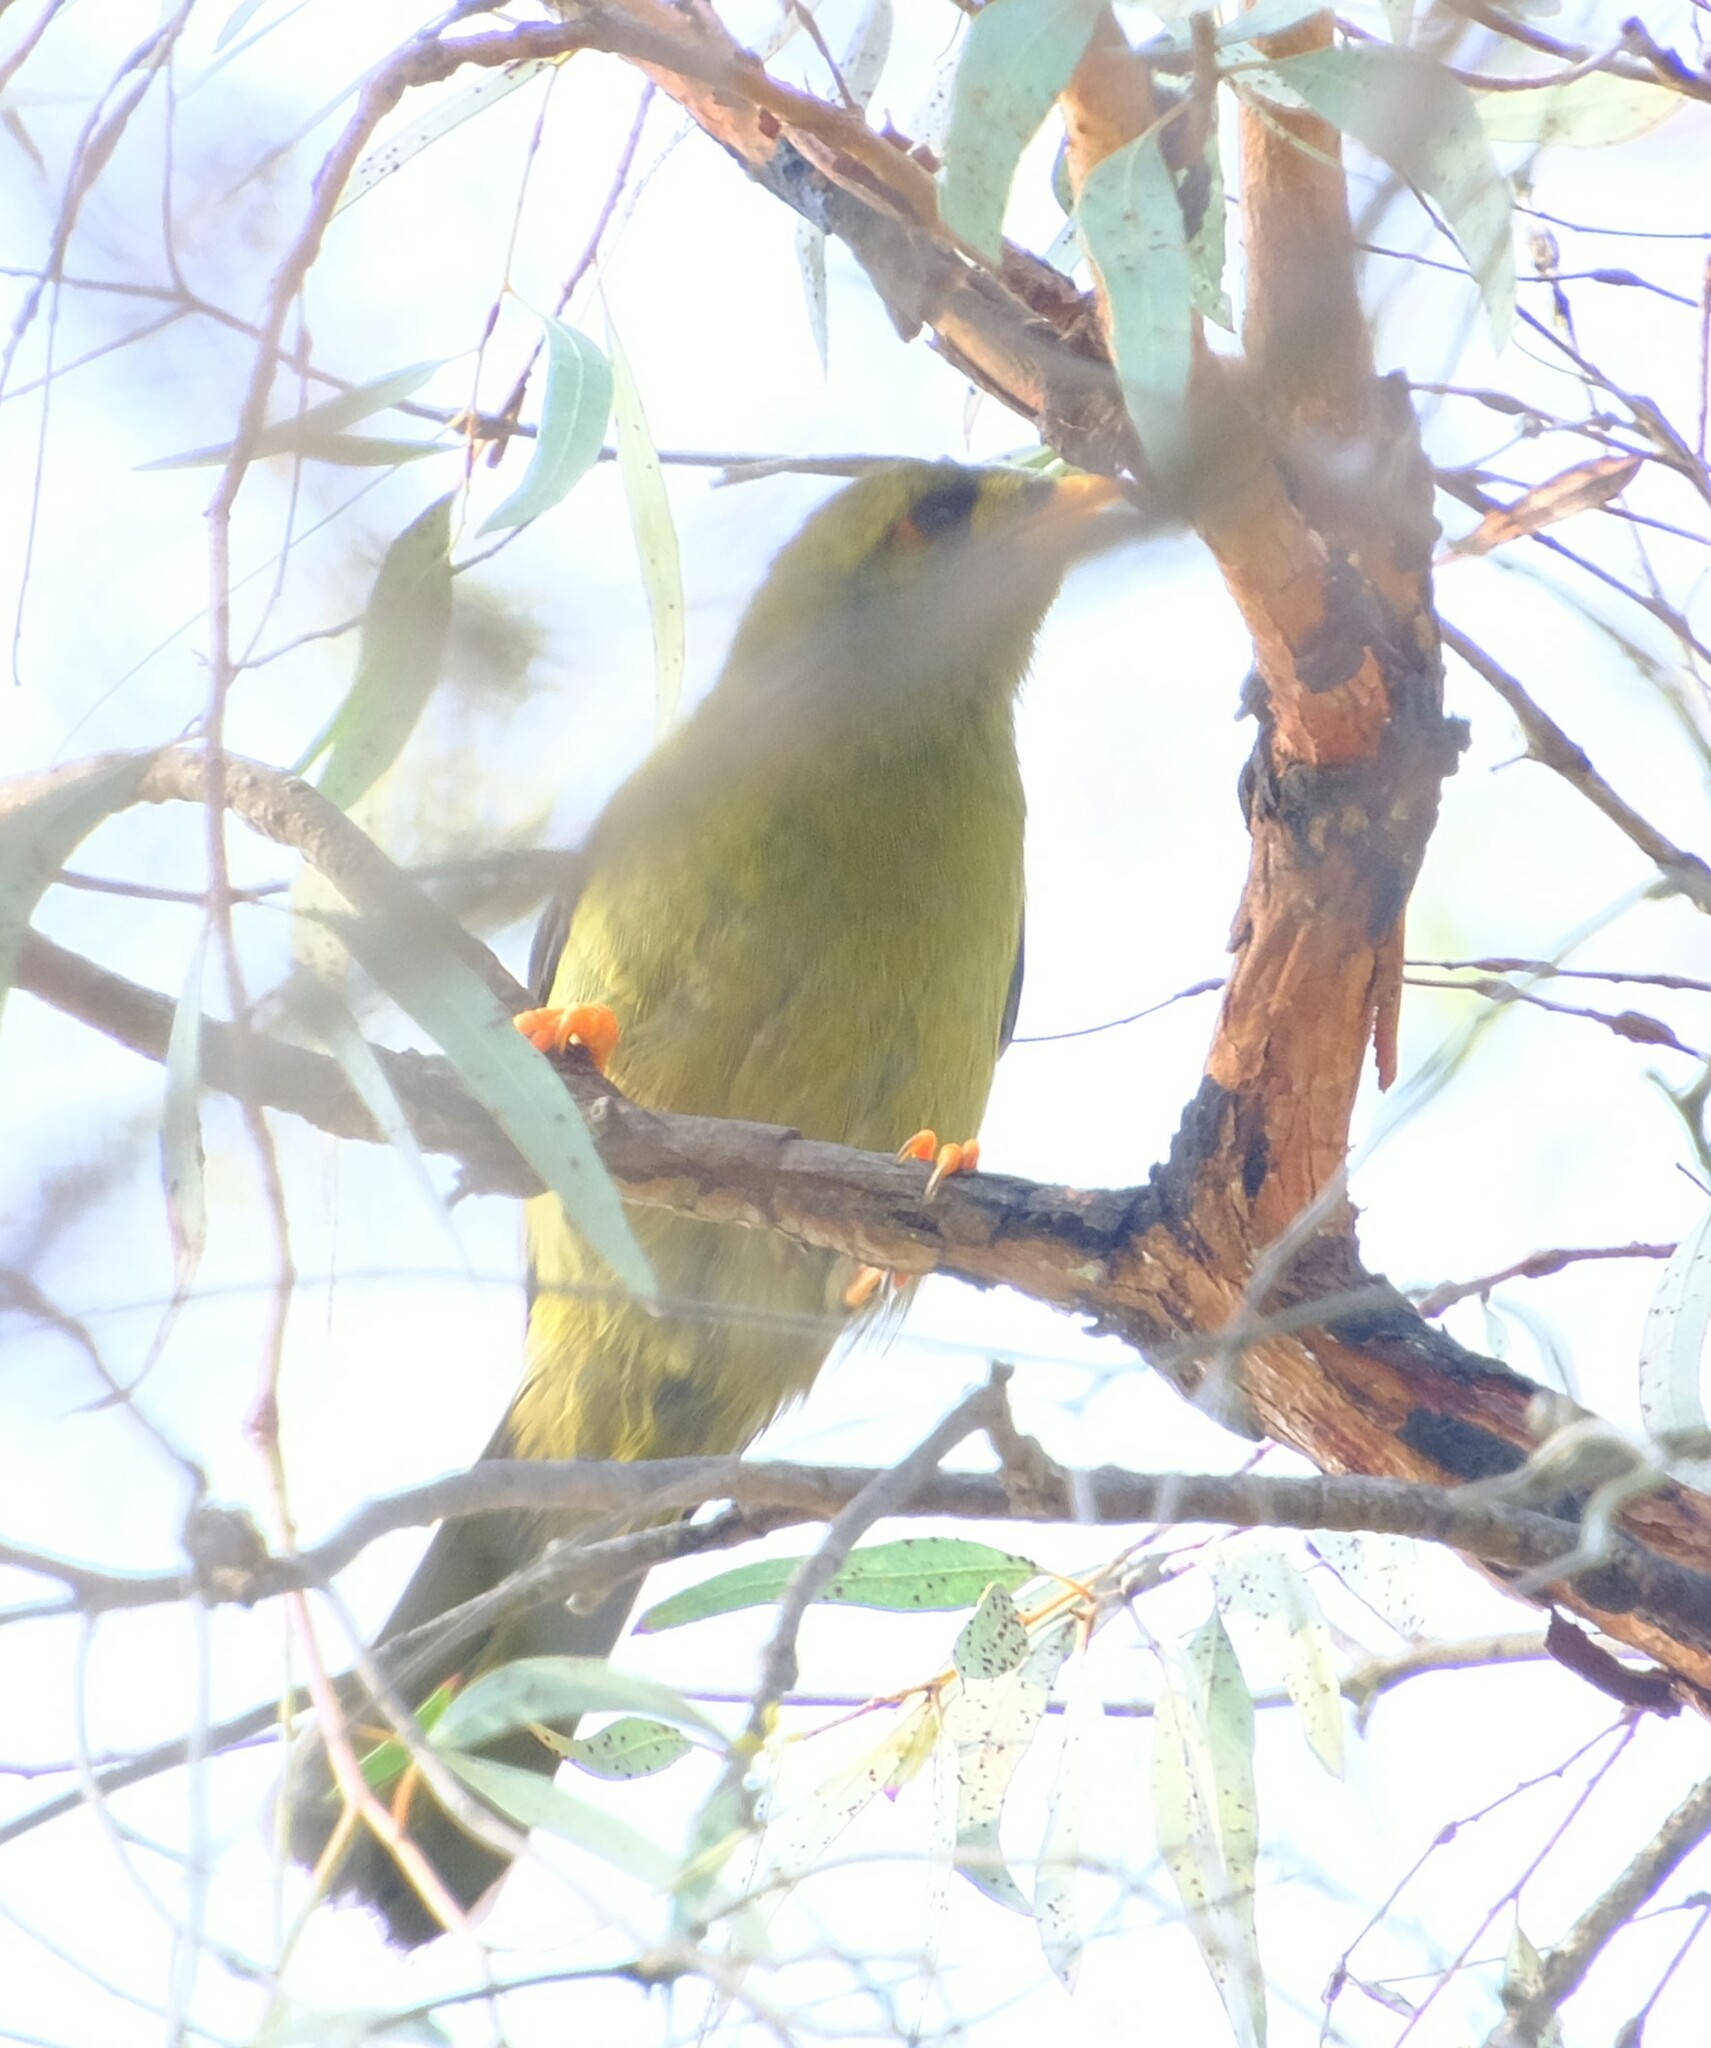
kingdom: Animalia
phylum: Chordata
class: Aves
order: Passeriformes
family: Meliphagidae
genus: Manorina
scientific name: Manorina melanophrys
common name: Bell miner
